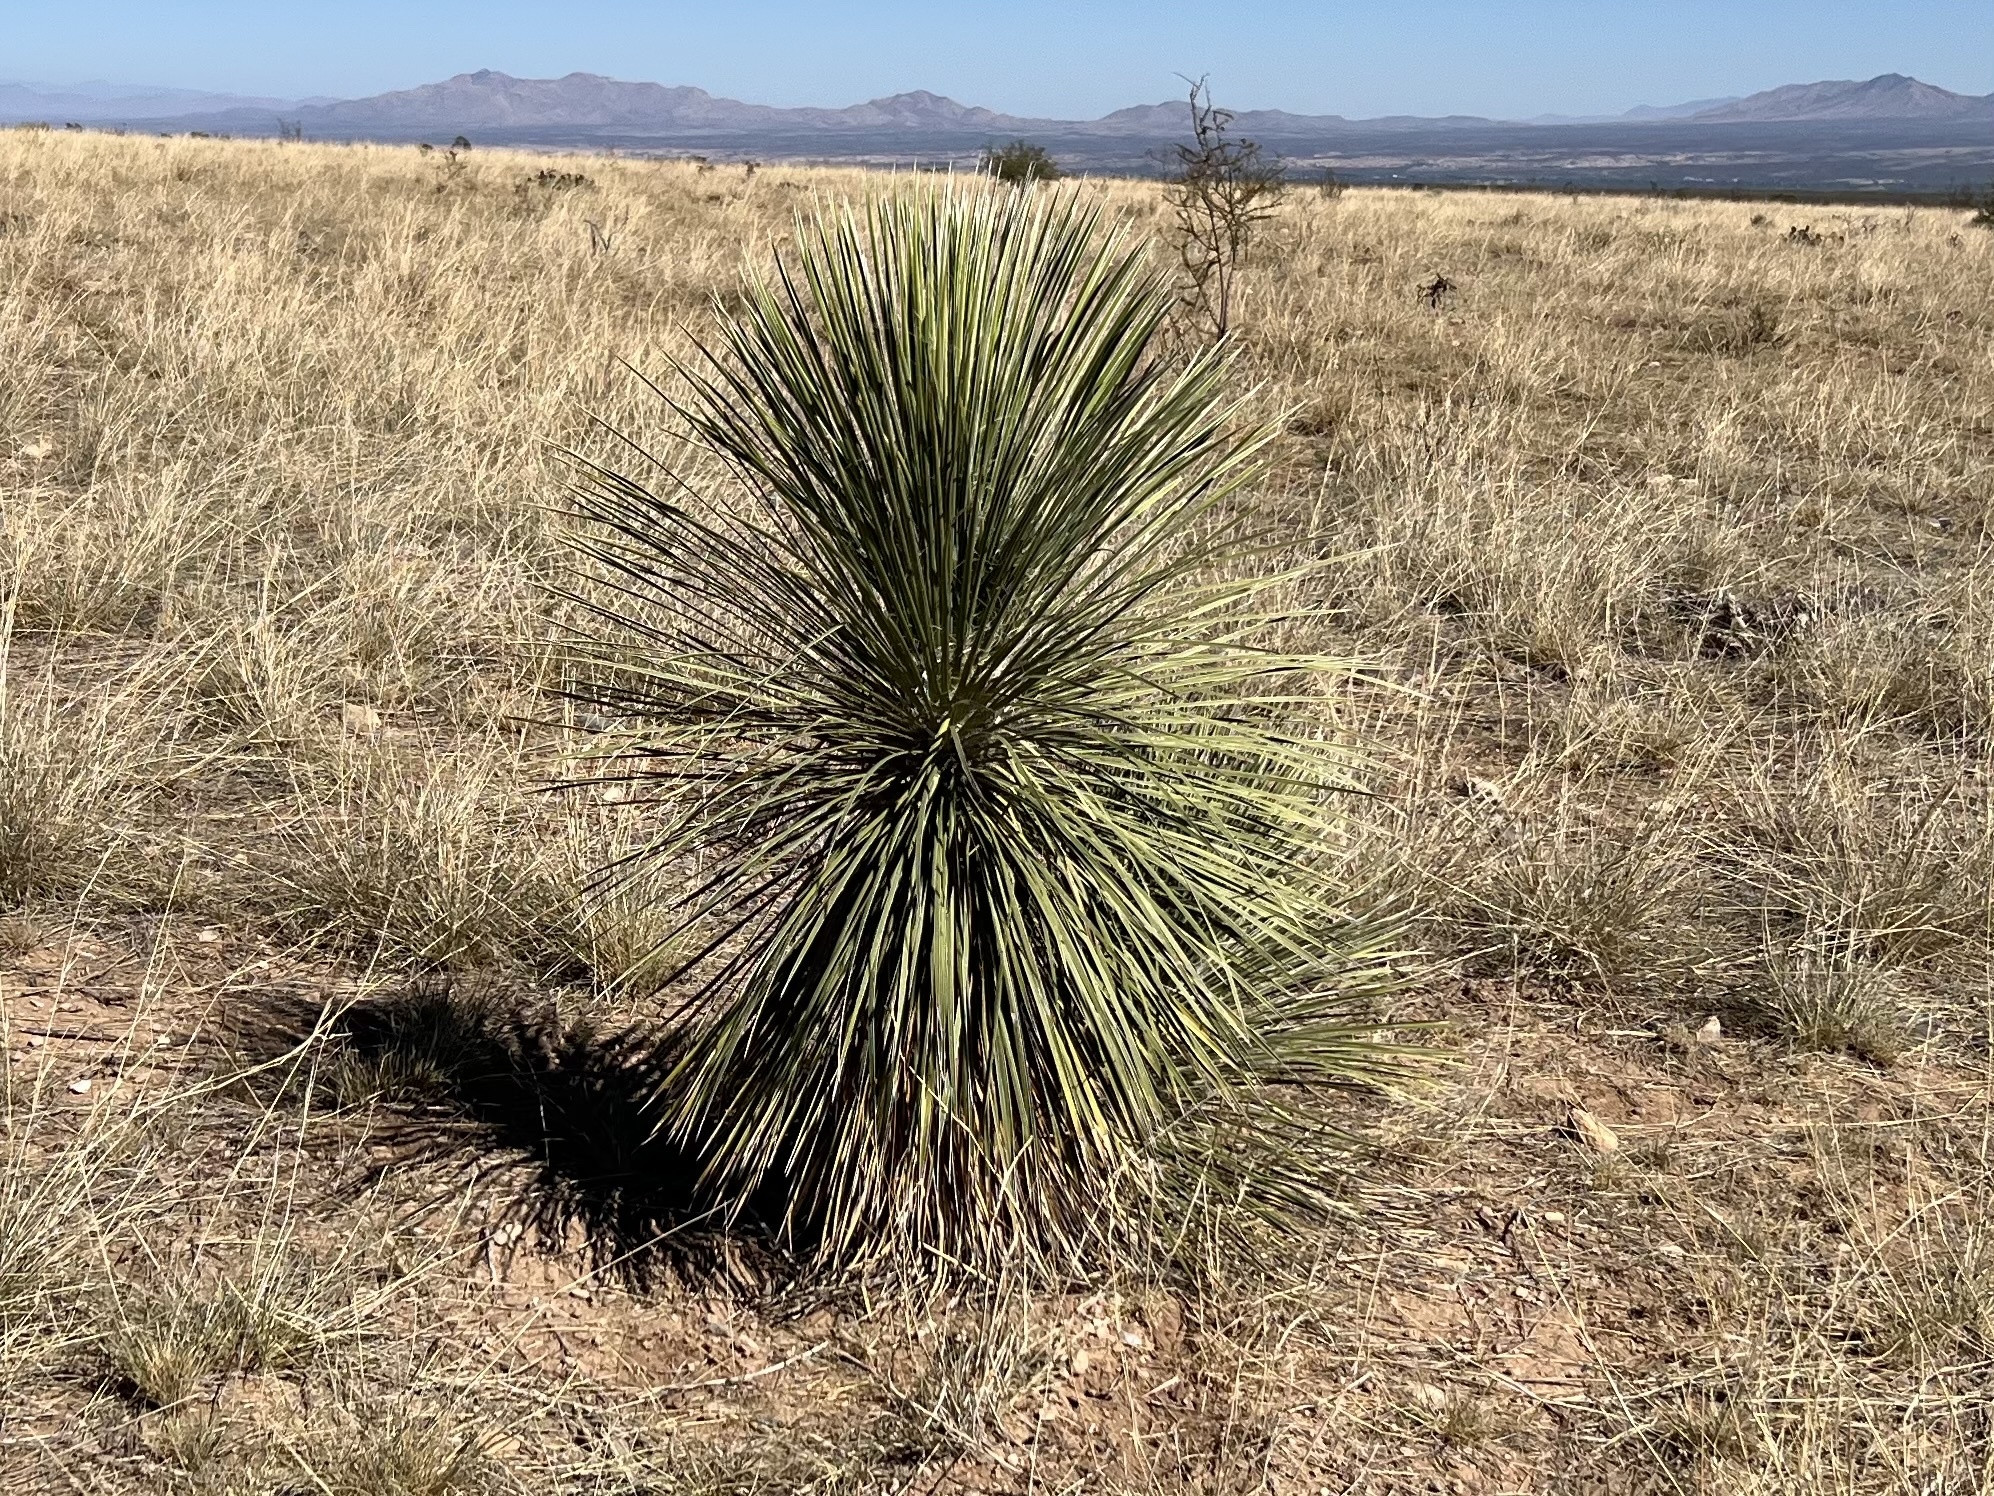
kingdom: Plantae
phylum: Tracheophyta
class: Liliopsida
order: Asparagales
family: Asparagaceae
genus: Yucca
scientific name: Yucca elata
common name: Palmella
